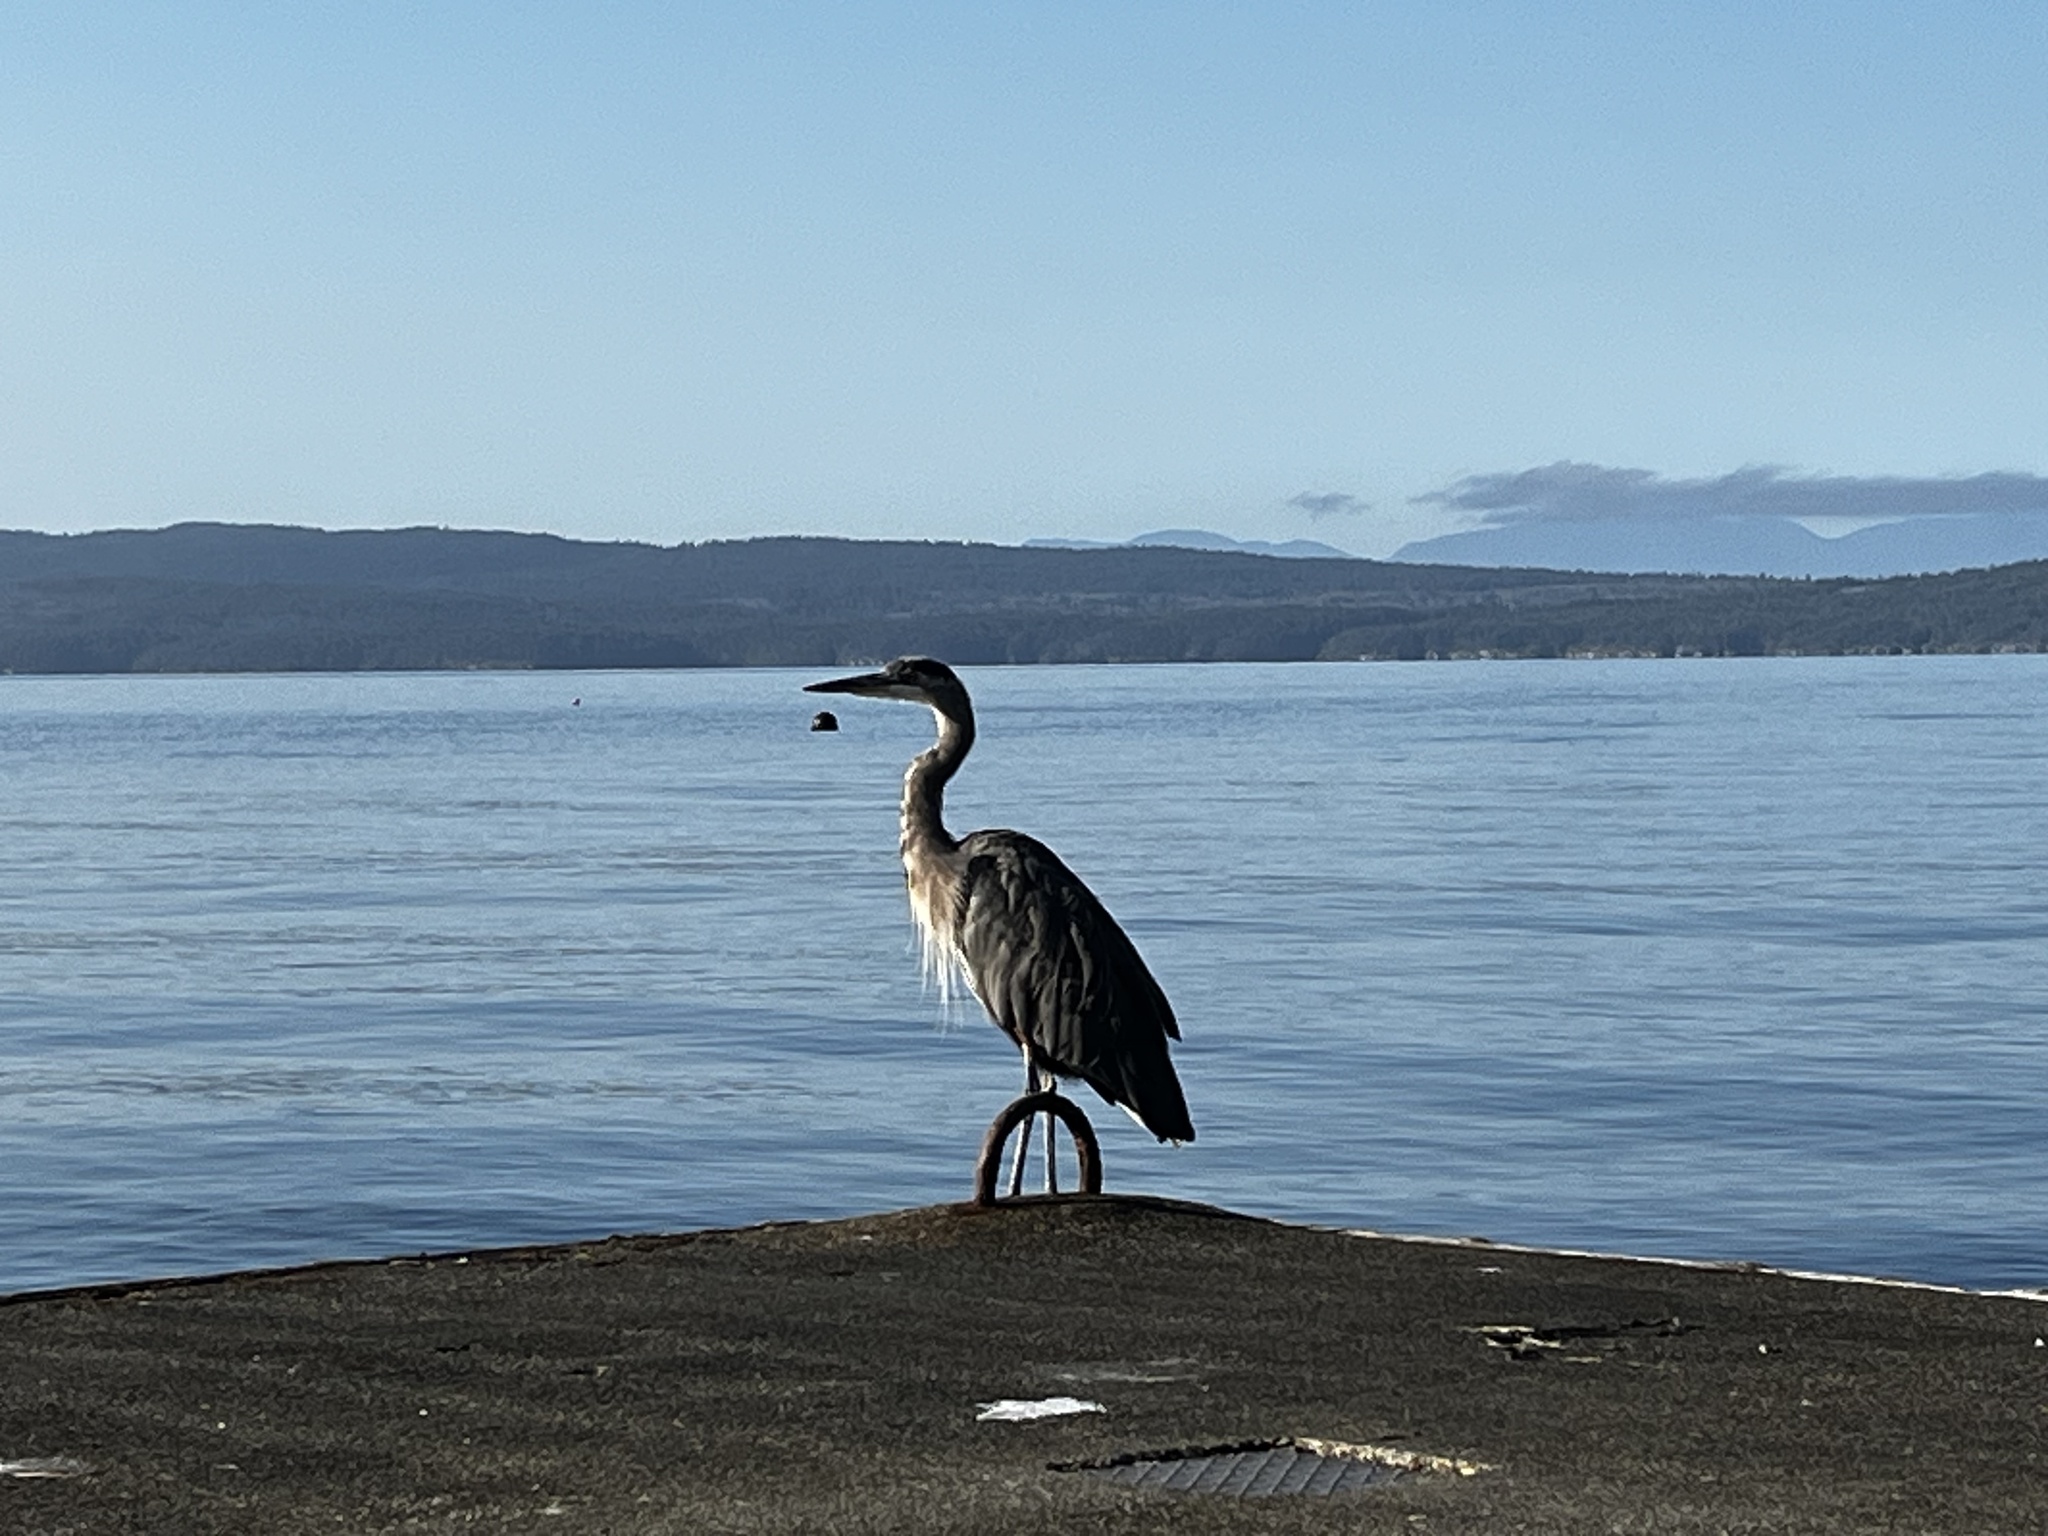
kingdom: Animalia
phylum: Chordata
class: Aves
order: Pelecaniformes
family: Ardeidae
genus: Ardea
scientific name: Ardea herodias
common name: Great blue heron
